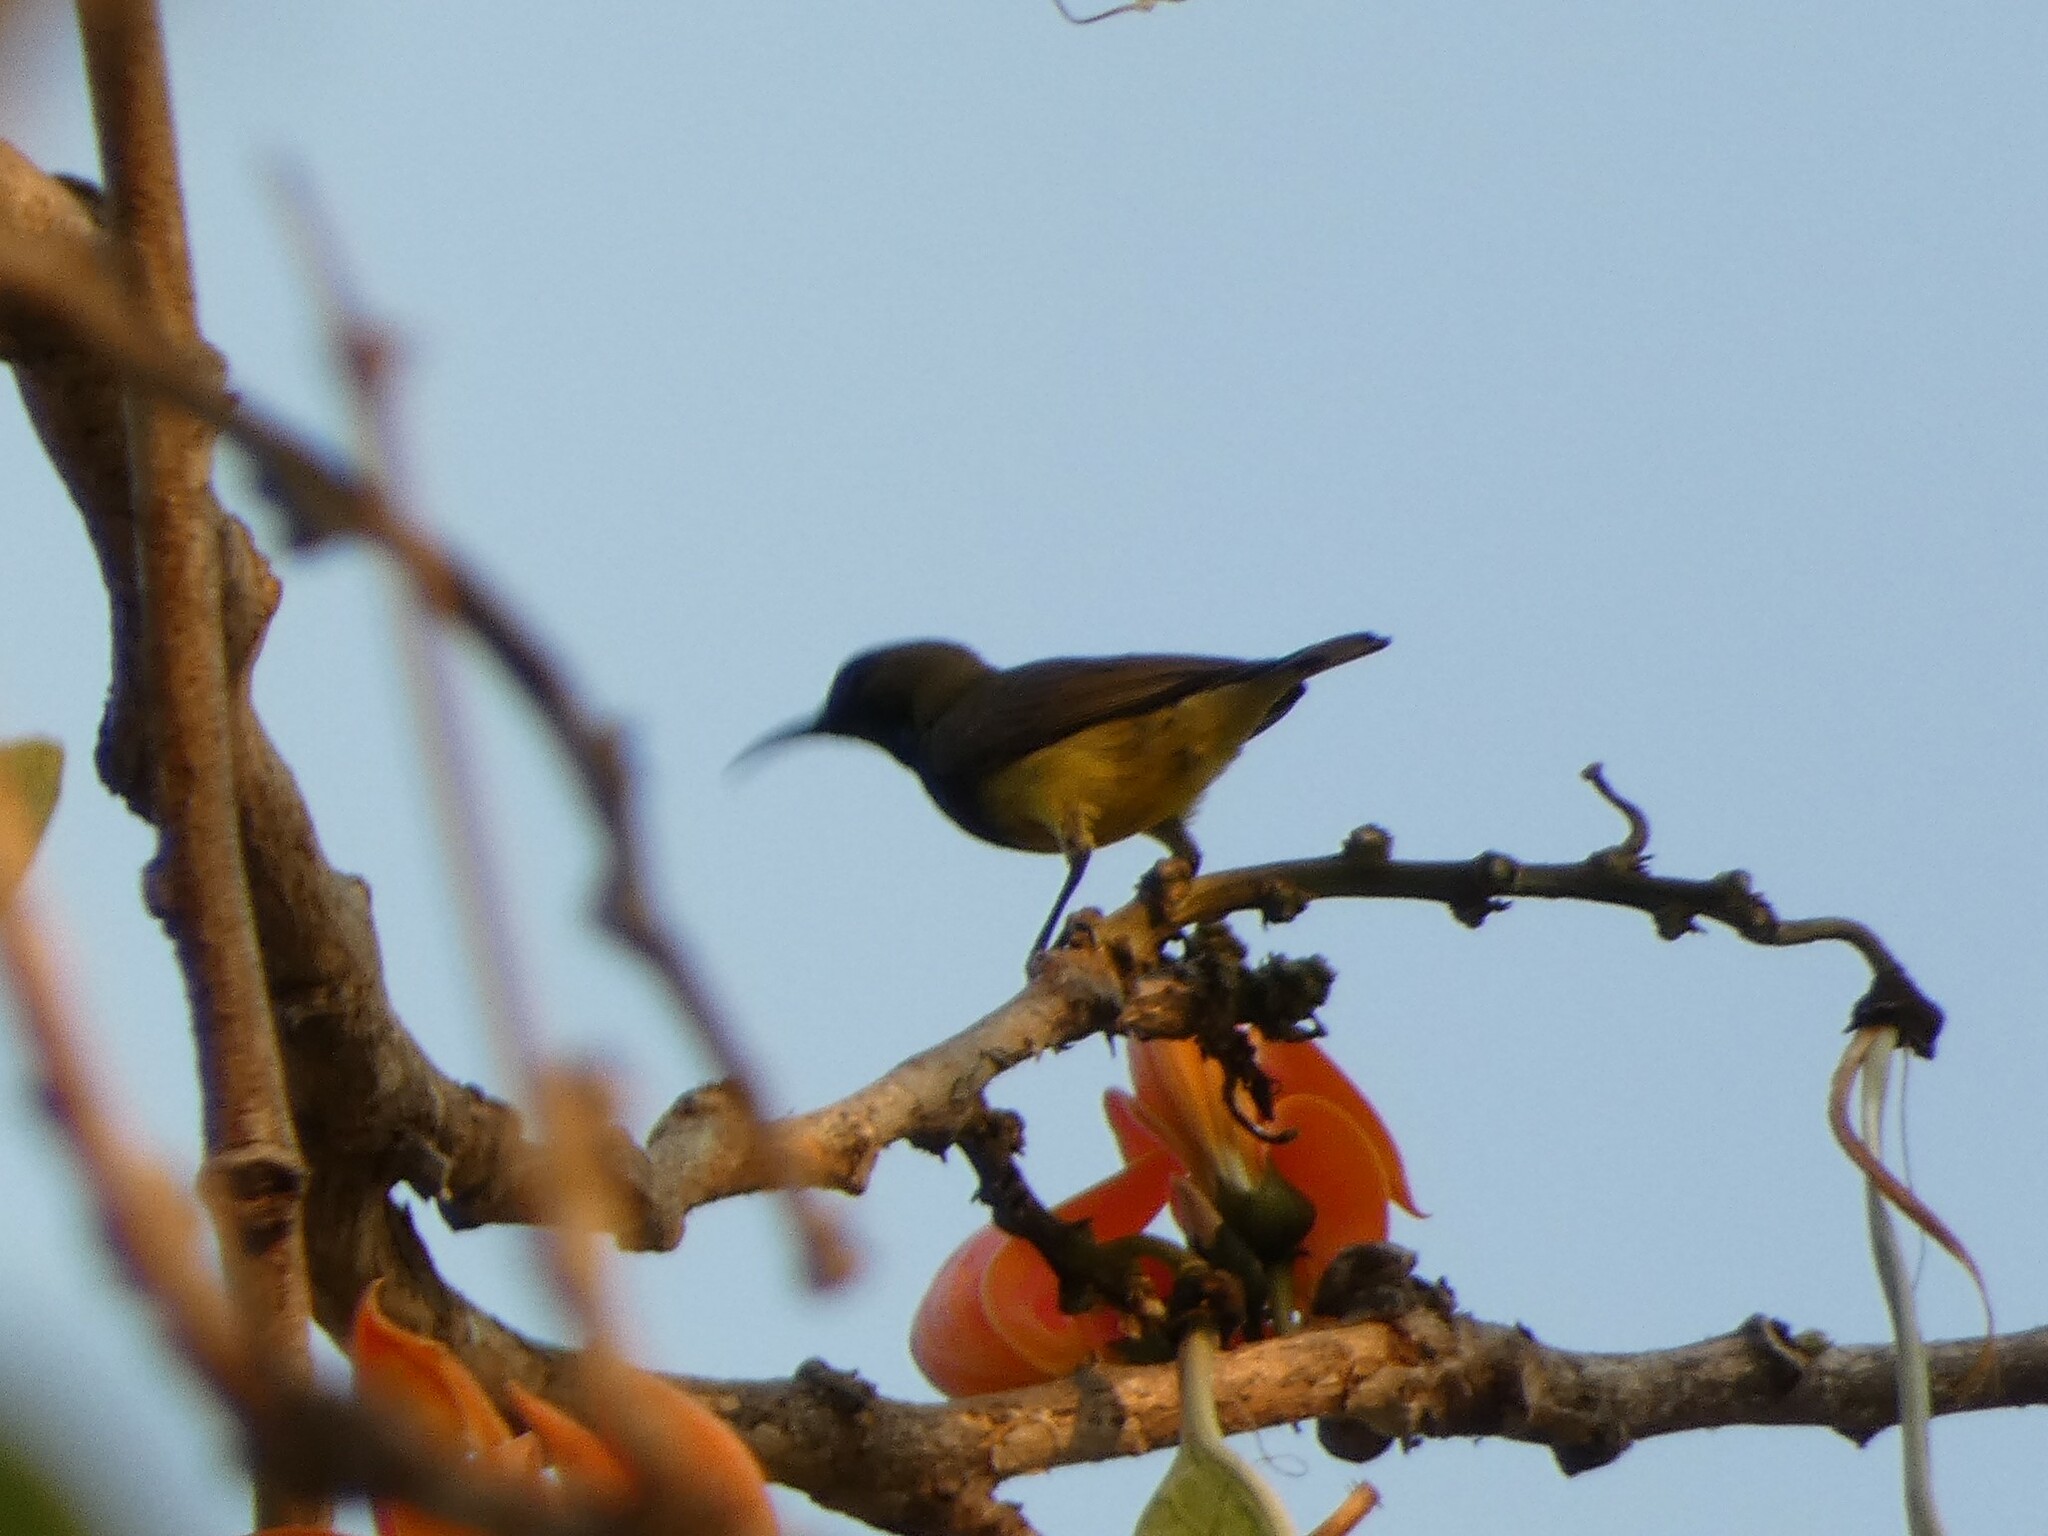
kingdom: Animalia
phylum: Chordata
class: Aves
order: Passeriformes
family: Nectariniidae
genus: Cinnyris
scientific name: Cinnyris
